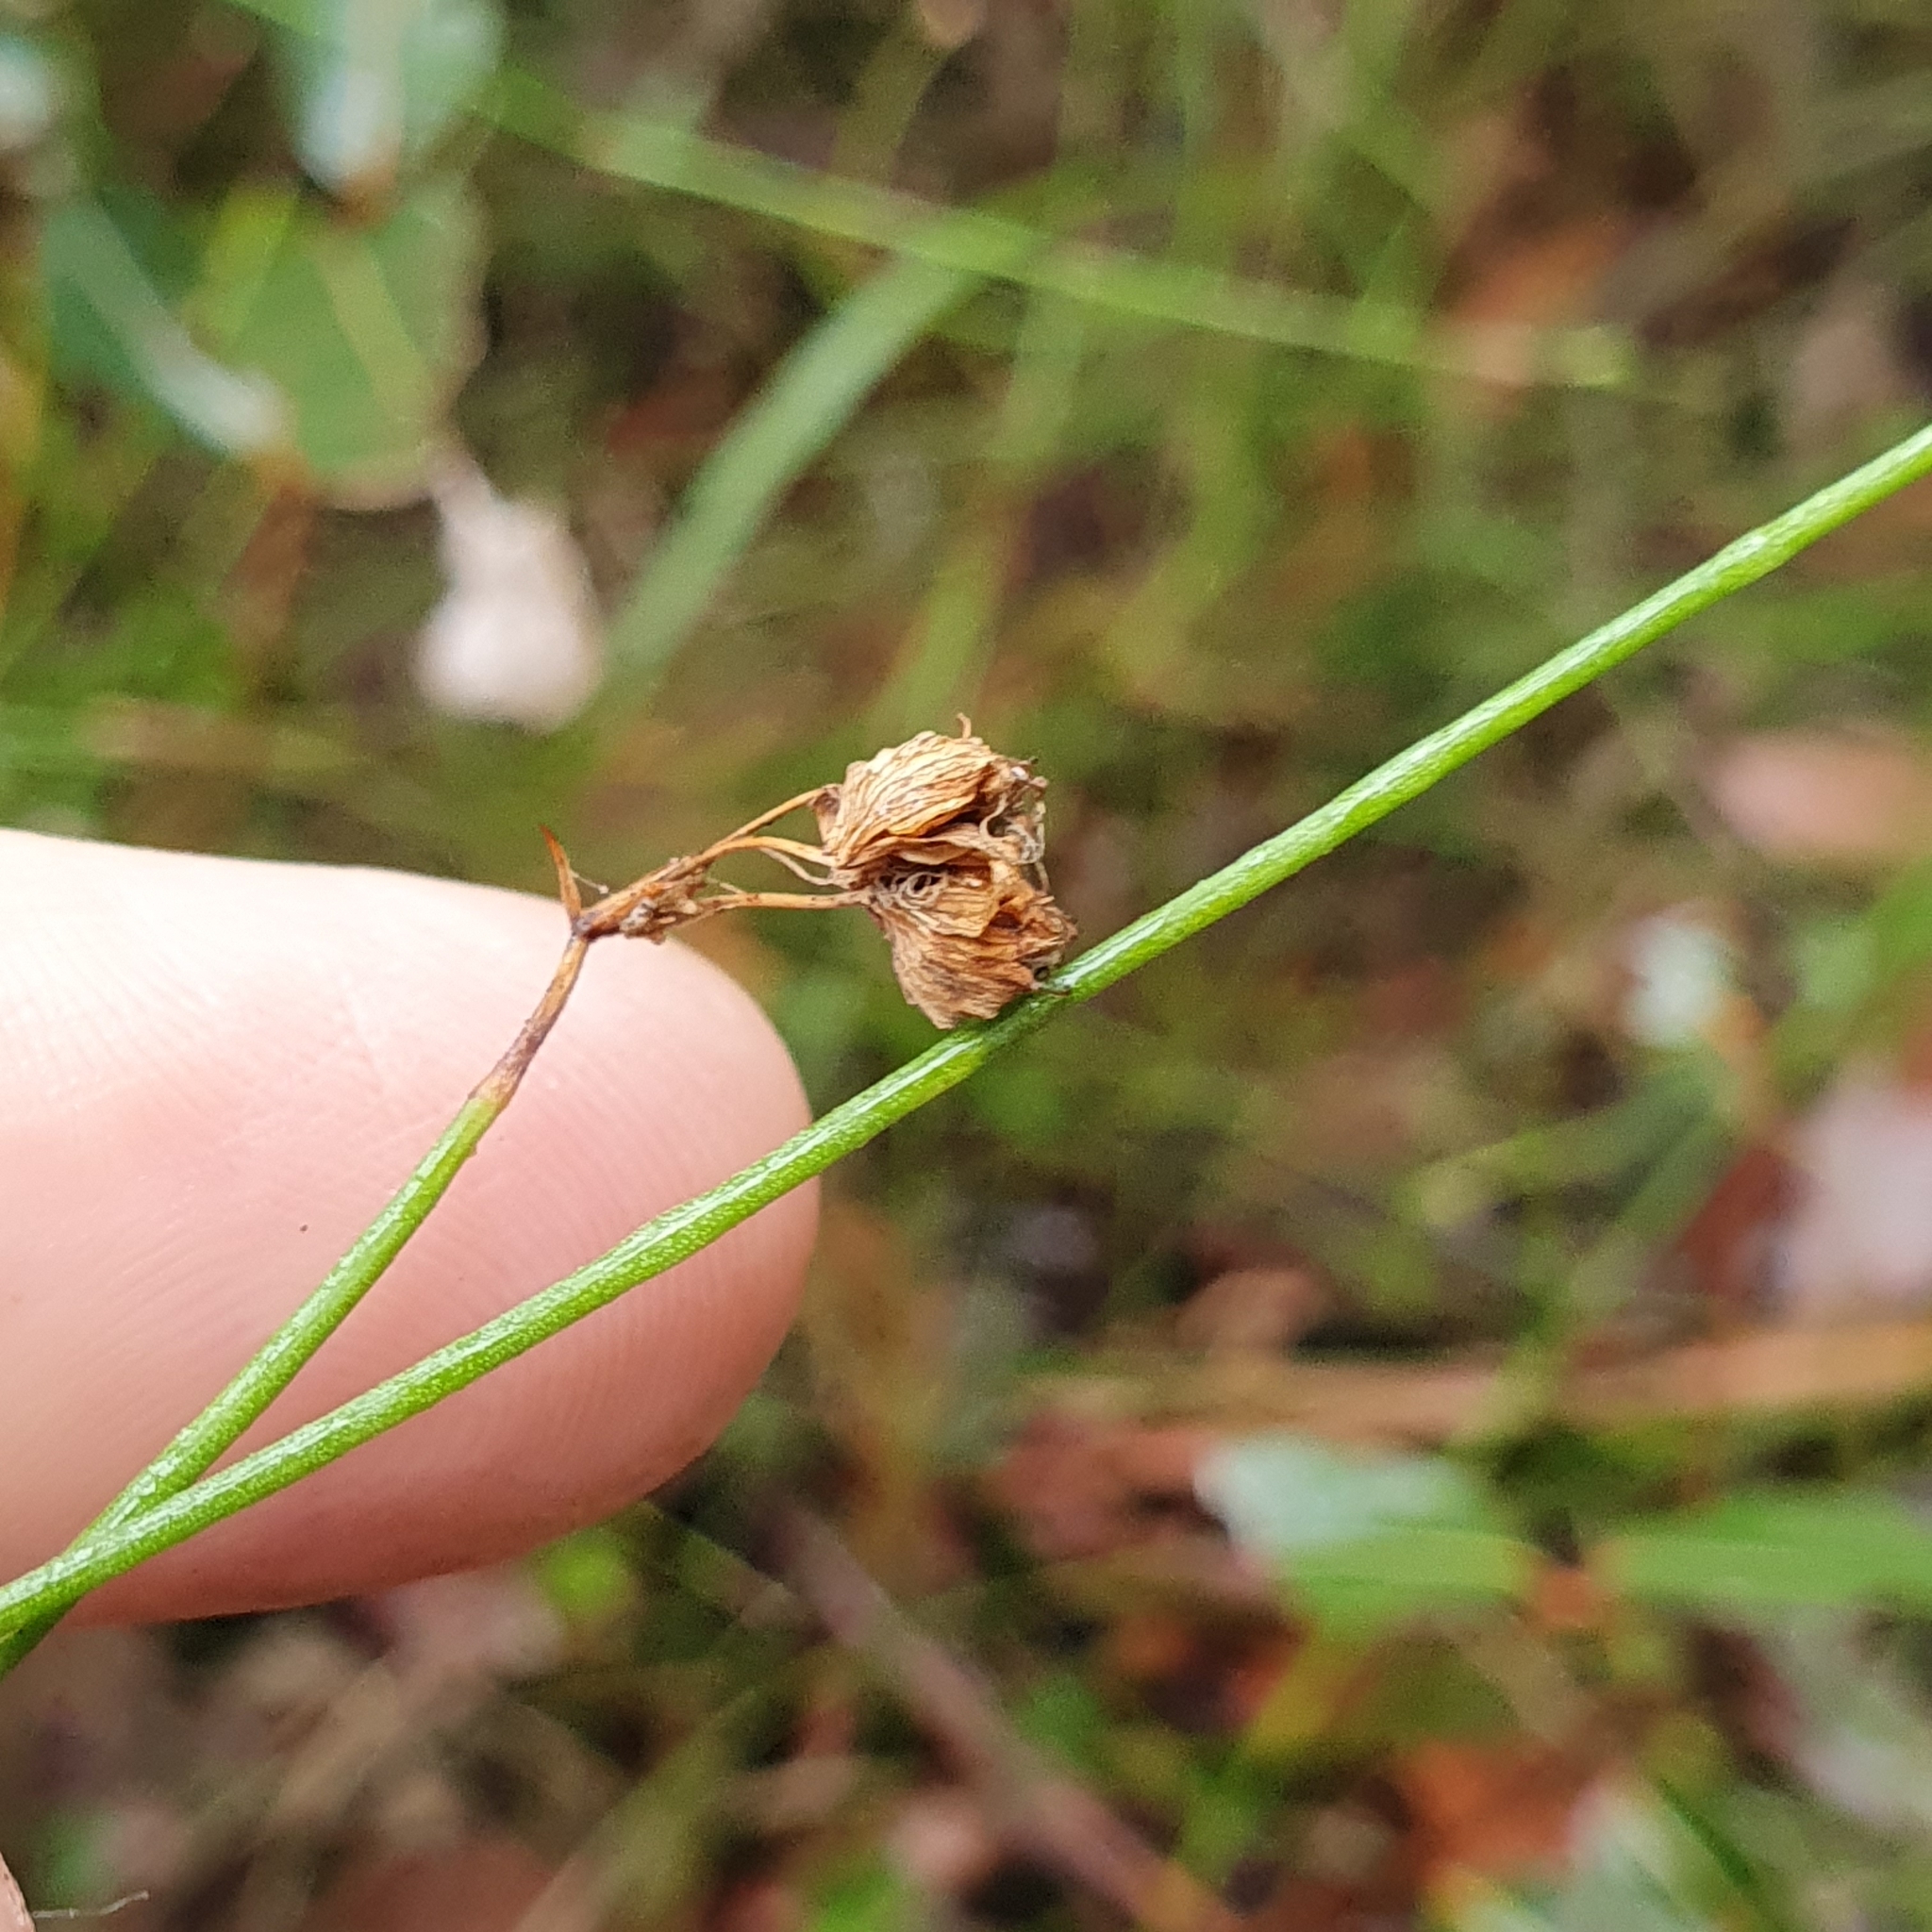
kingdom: Plantae
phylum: Tracheophyta
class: Magnoliopsida
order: Apiales
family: Apiaceae
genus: Xanthosia
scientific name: Xanthosia atkinsoniana
